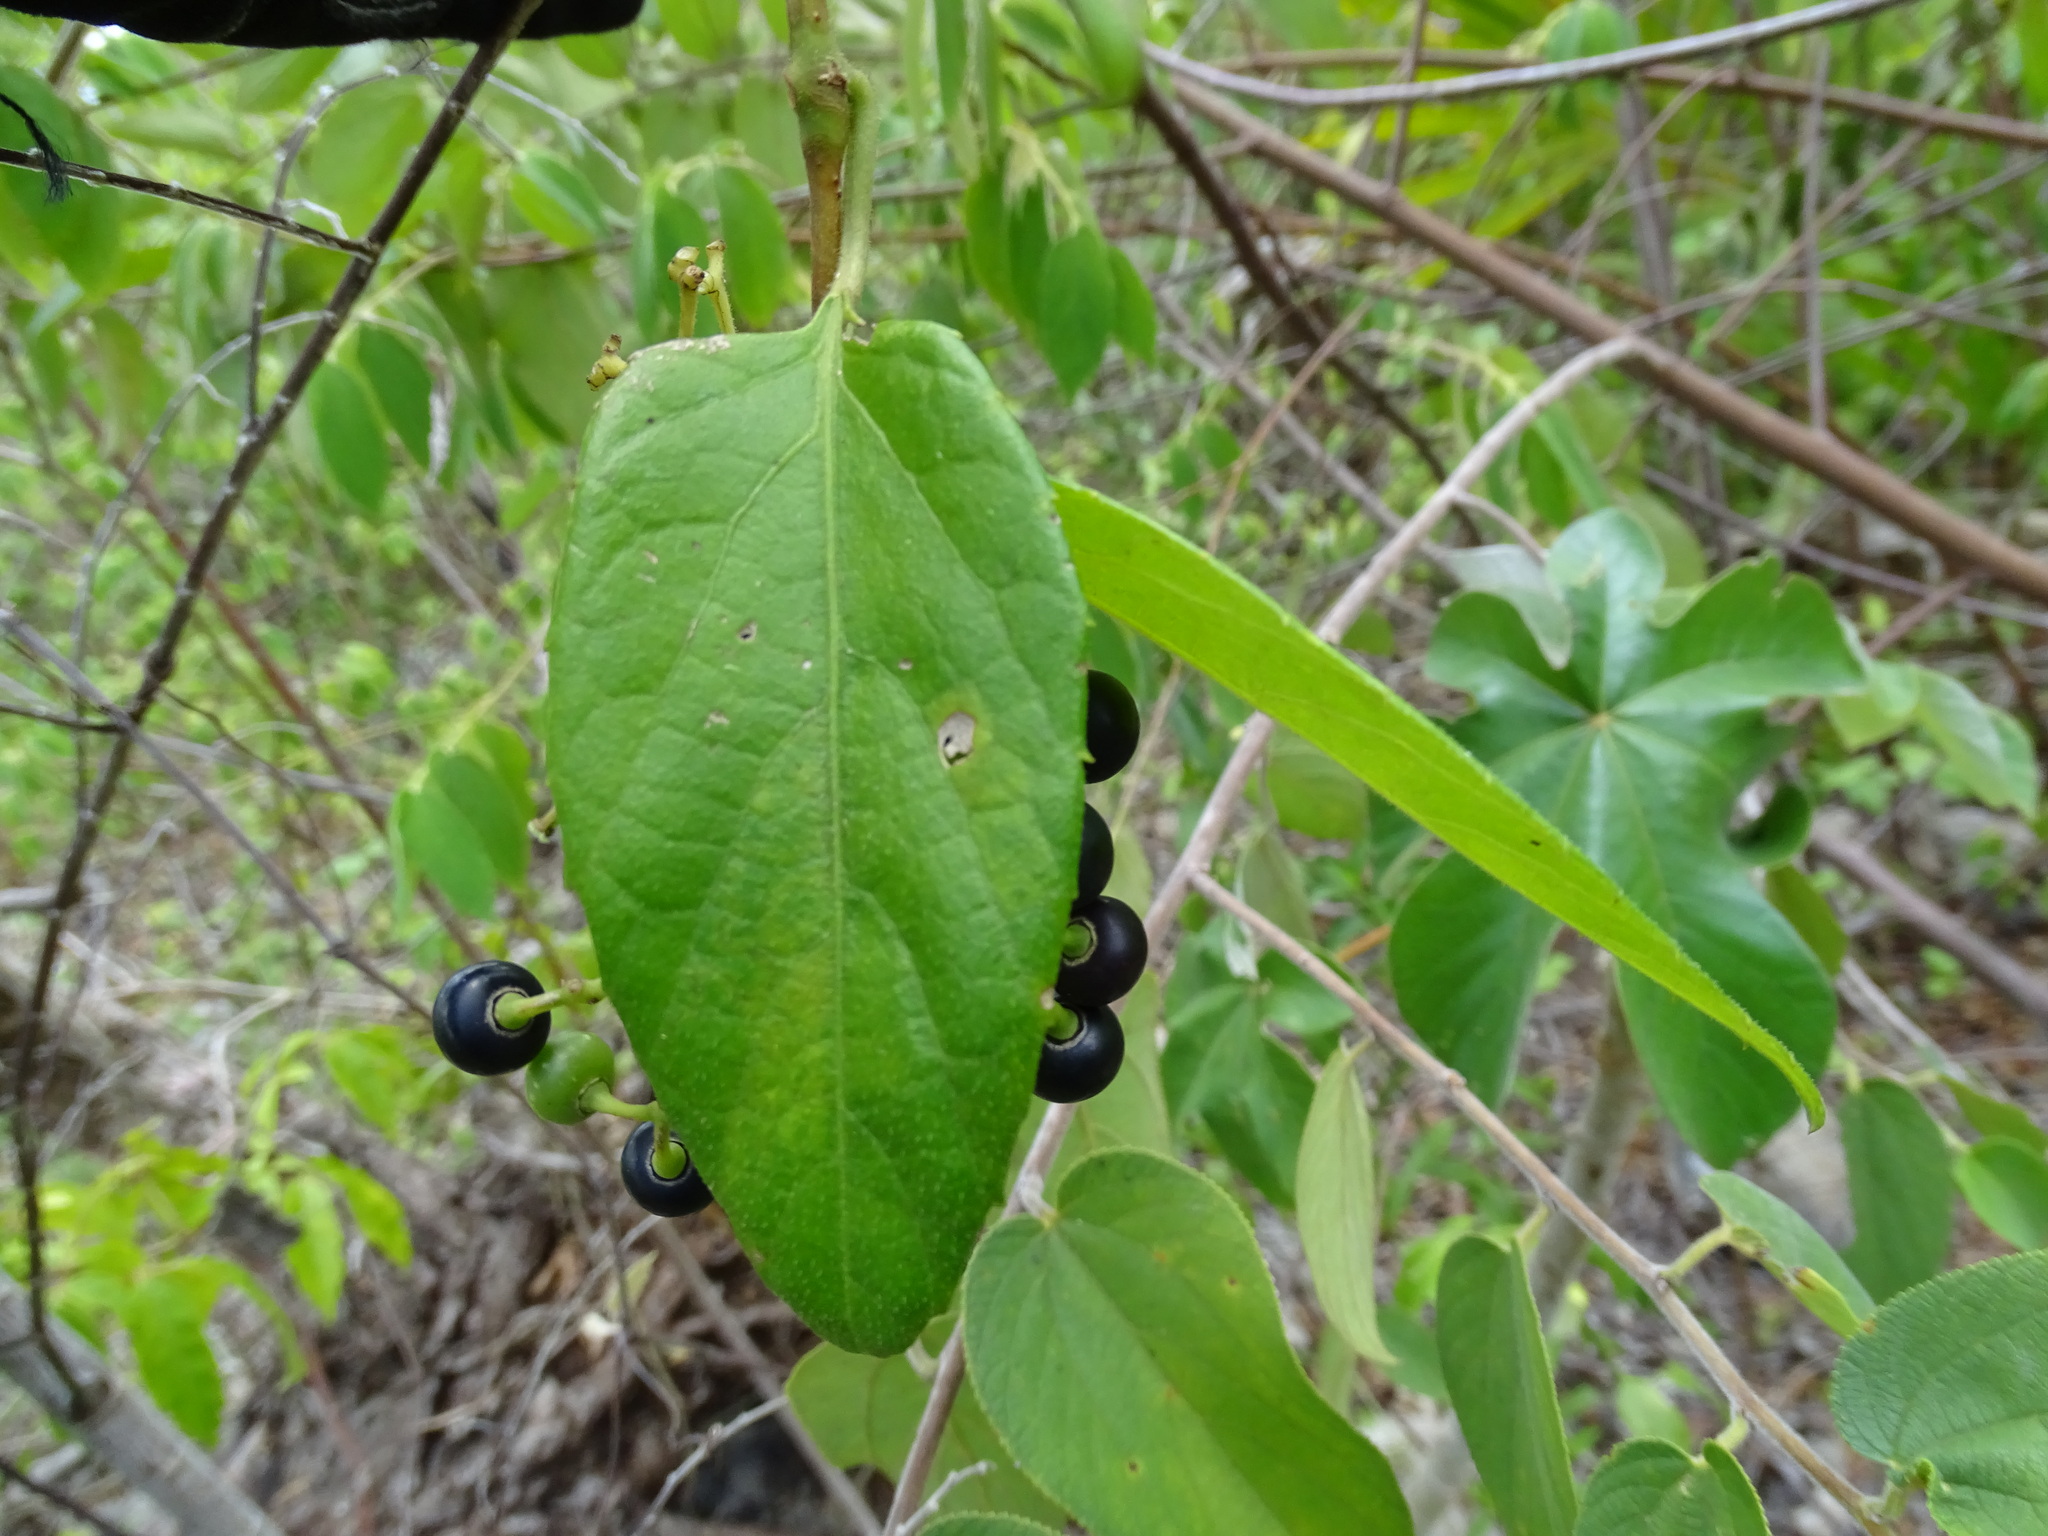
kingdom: Plantae
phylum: Tracheophyta
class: Magnoliopsida
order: Vitales
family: Vitaceae
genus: Cissus
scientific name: Cissus verticillata
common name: Princess vine
